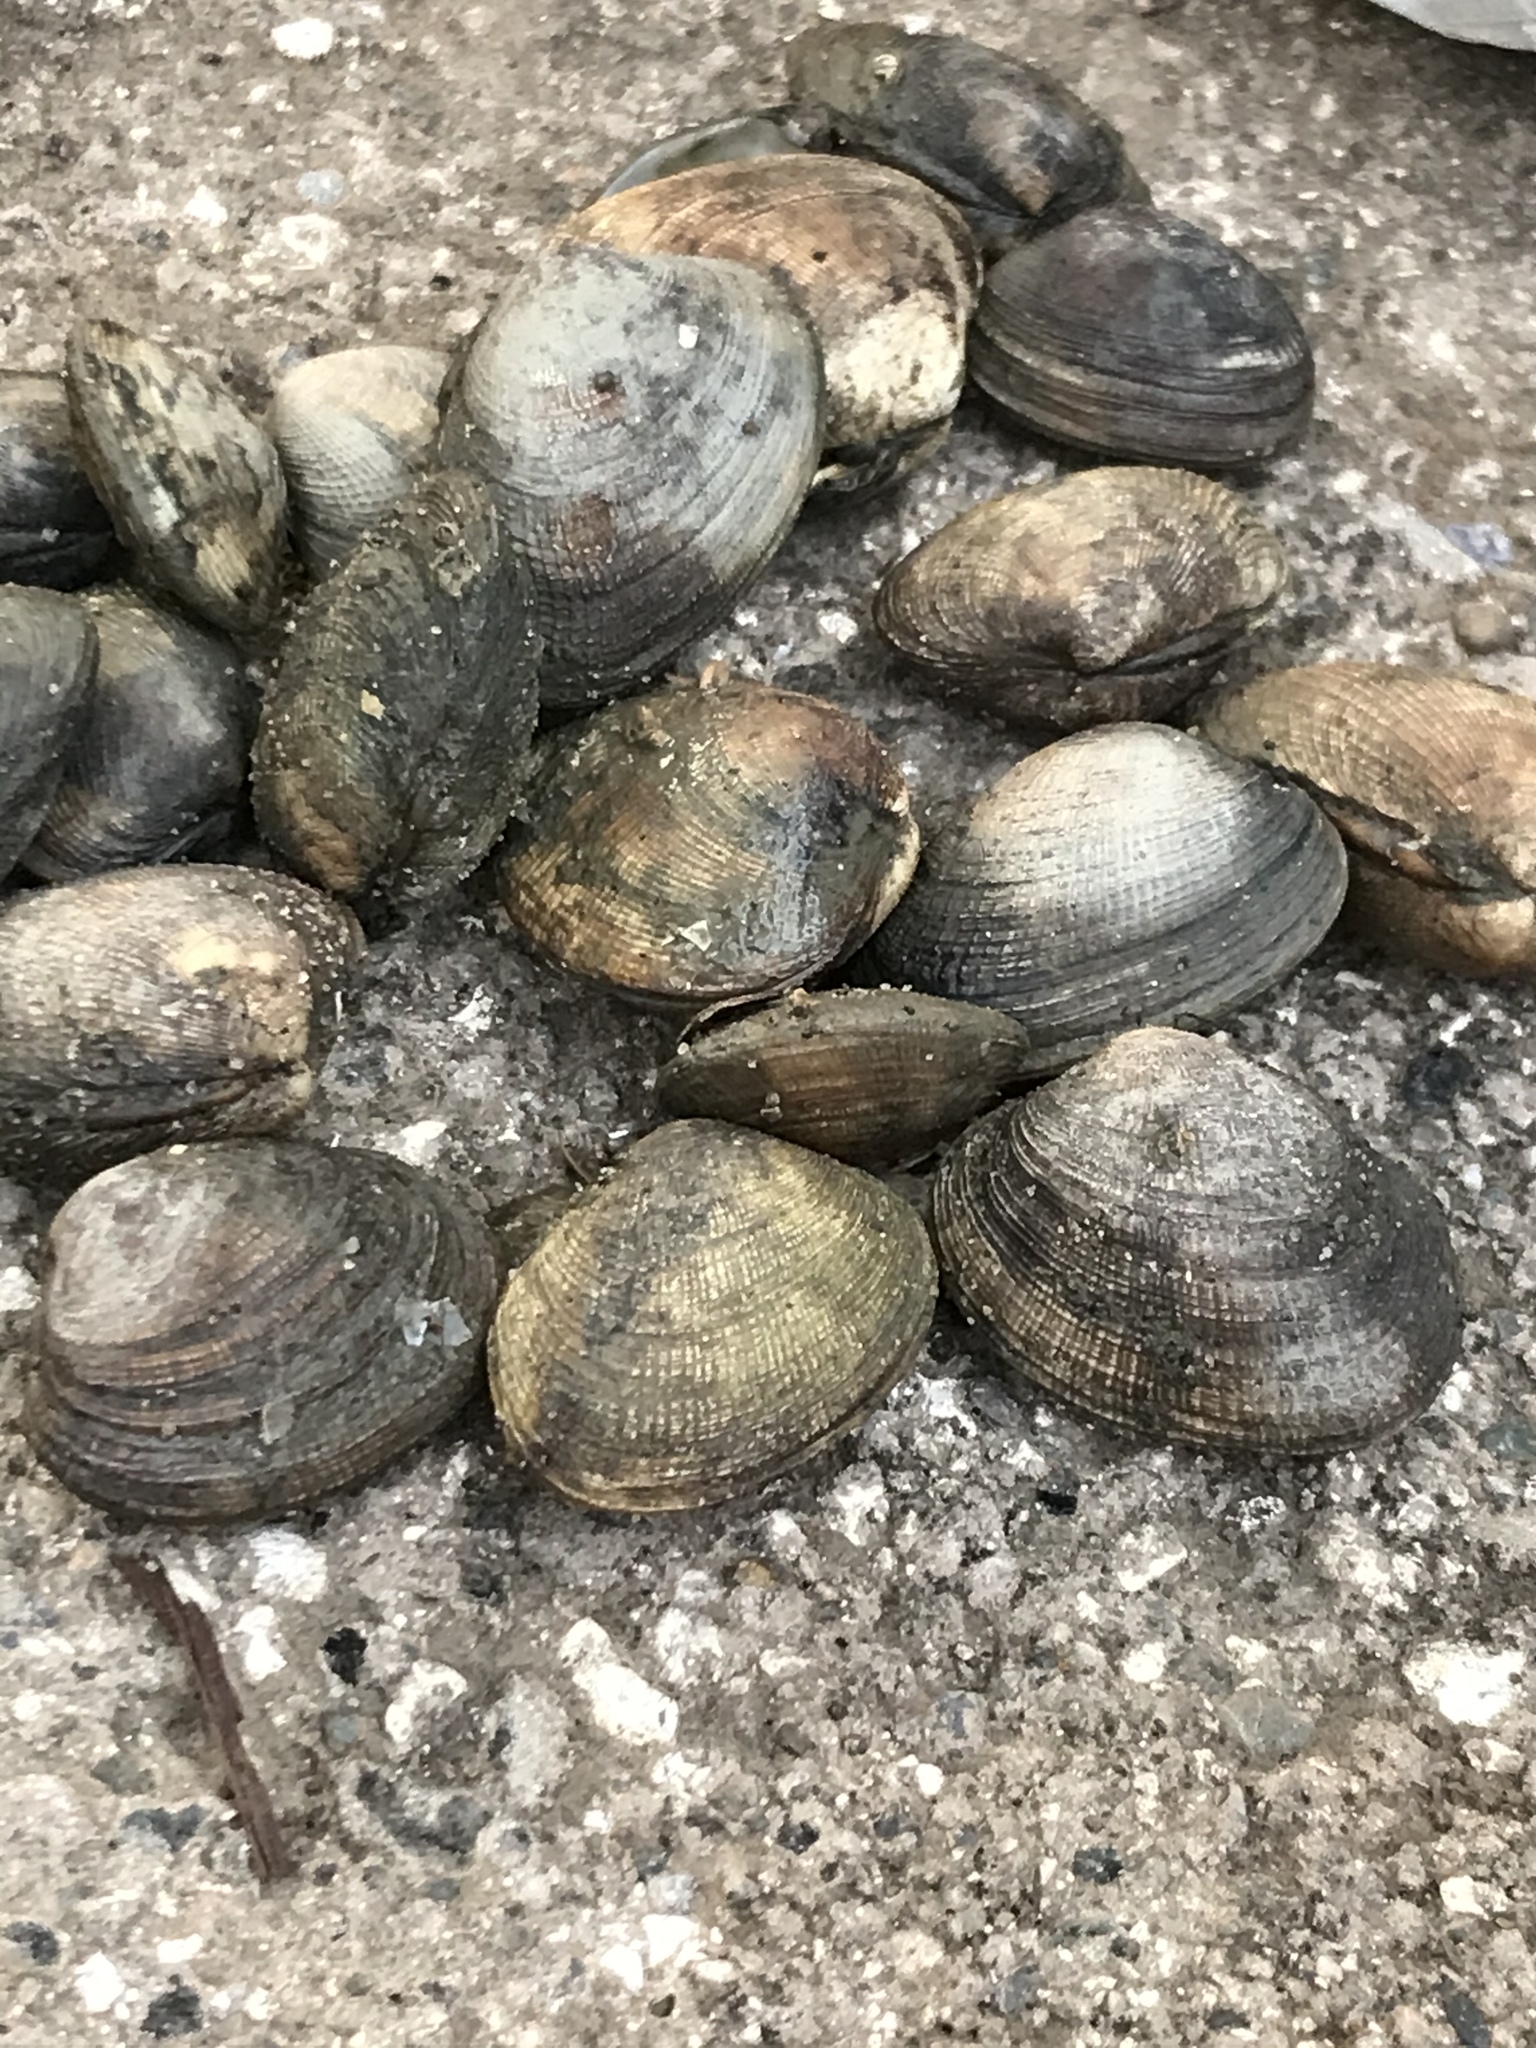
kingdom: Animalia
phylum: Mollusca
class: Bivalvia
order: Venerida
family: Veneridae
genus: Ruditapes
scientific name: Ruditapes philippinarum
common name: Manila clam
